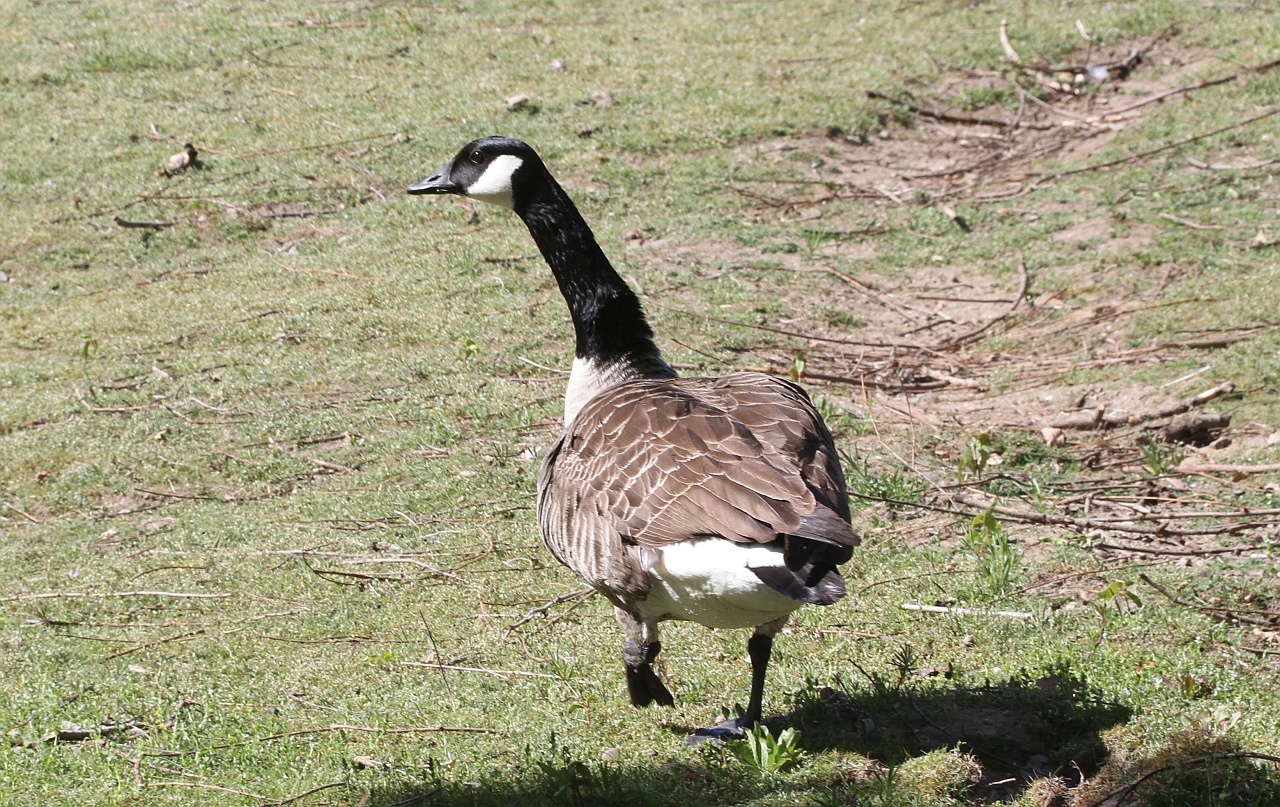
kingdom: Animalia
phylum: Chordata
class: Aves
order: Anseriformes
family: Anatidae
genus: Branta
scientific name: Branta canadensis
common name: Canada goose
